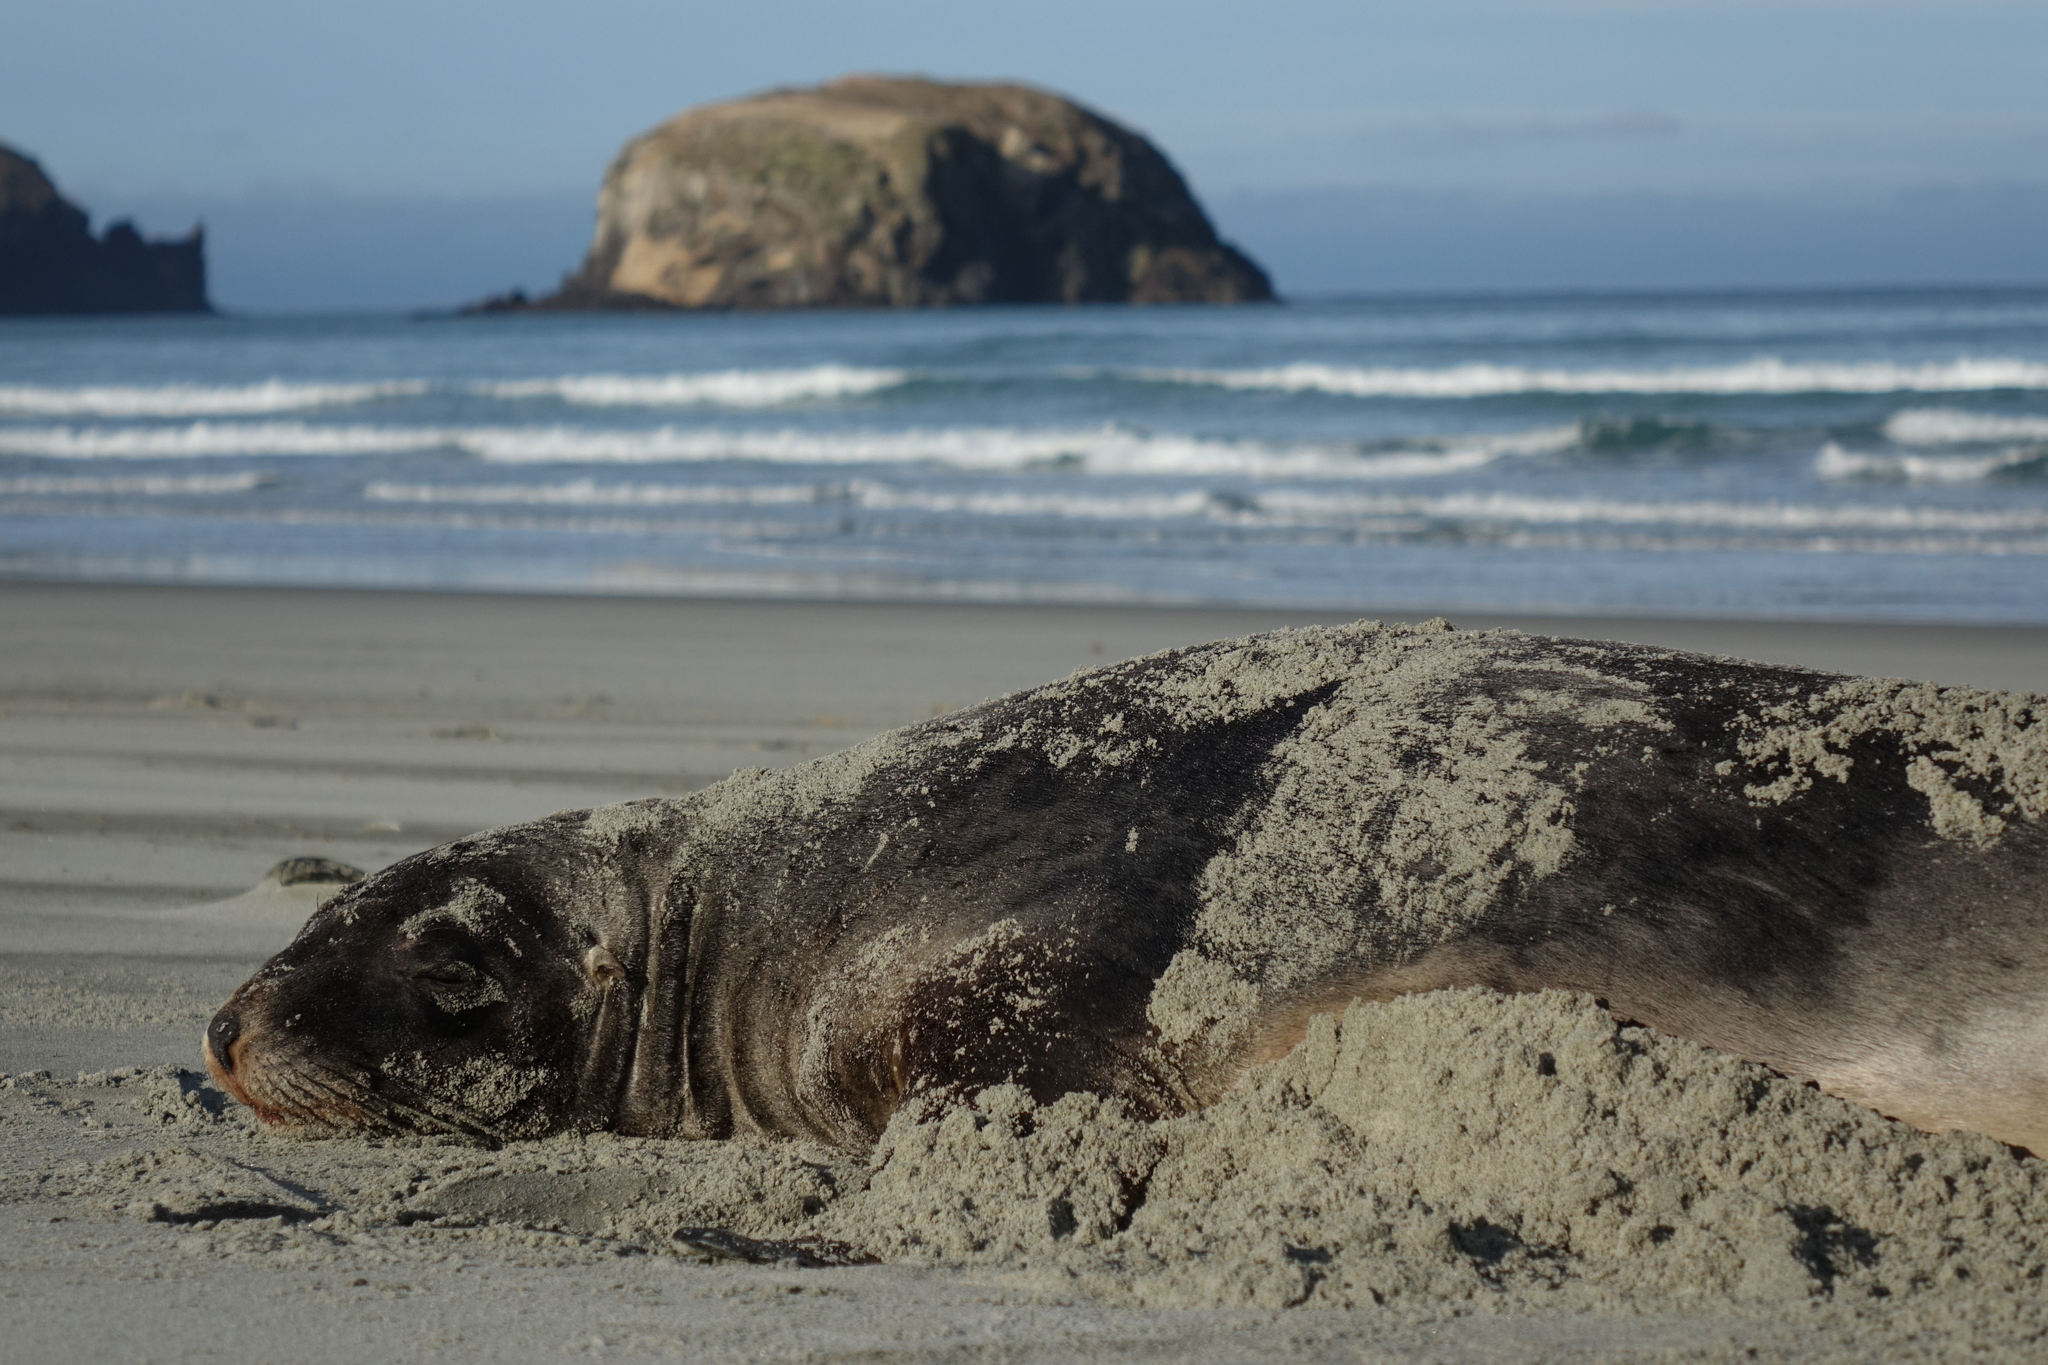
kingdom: Animalia
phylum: Chordata
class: Mammalia
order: Carnivora
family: Otariidae
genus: Phocarctos
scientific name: Phocarctos hookeri
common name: New zealand sea lion
